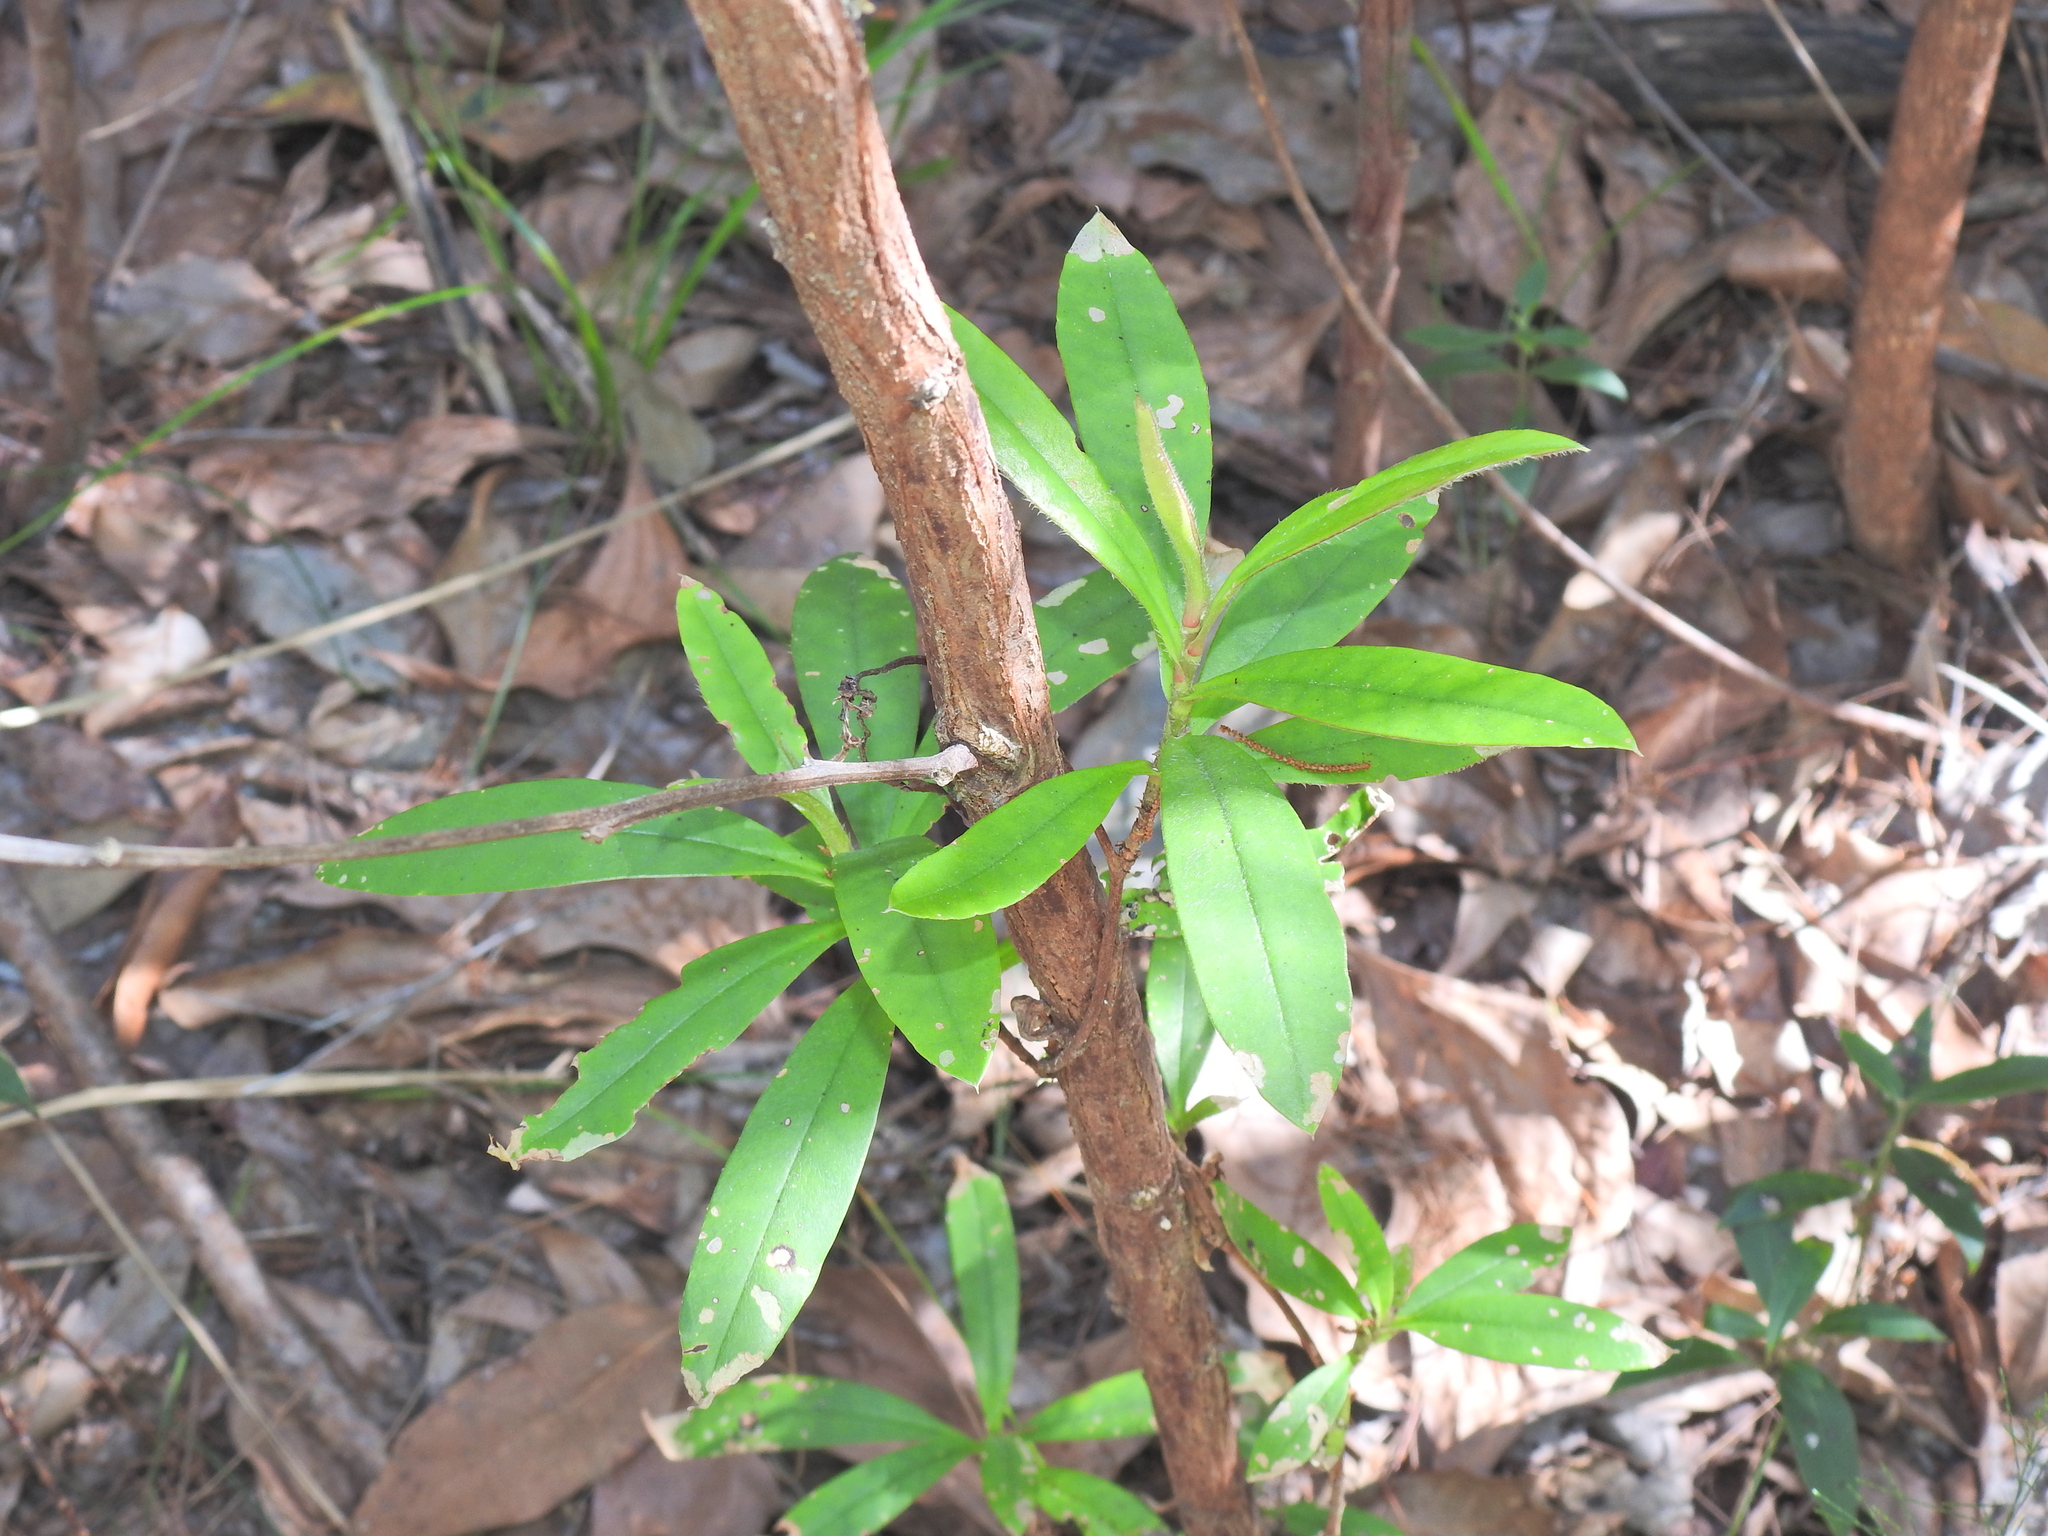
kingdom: Plantae
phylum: Tracheophyta
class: Magnoliopsida
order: Dilleniales
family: Dilleniaceae
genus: Hibbertia
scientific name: Hibbertia scandens
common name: Climbing guinea-flower
